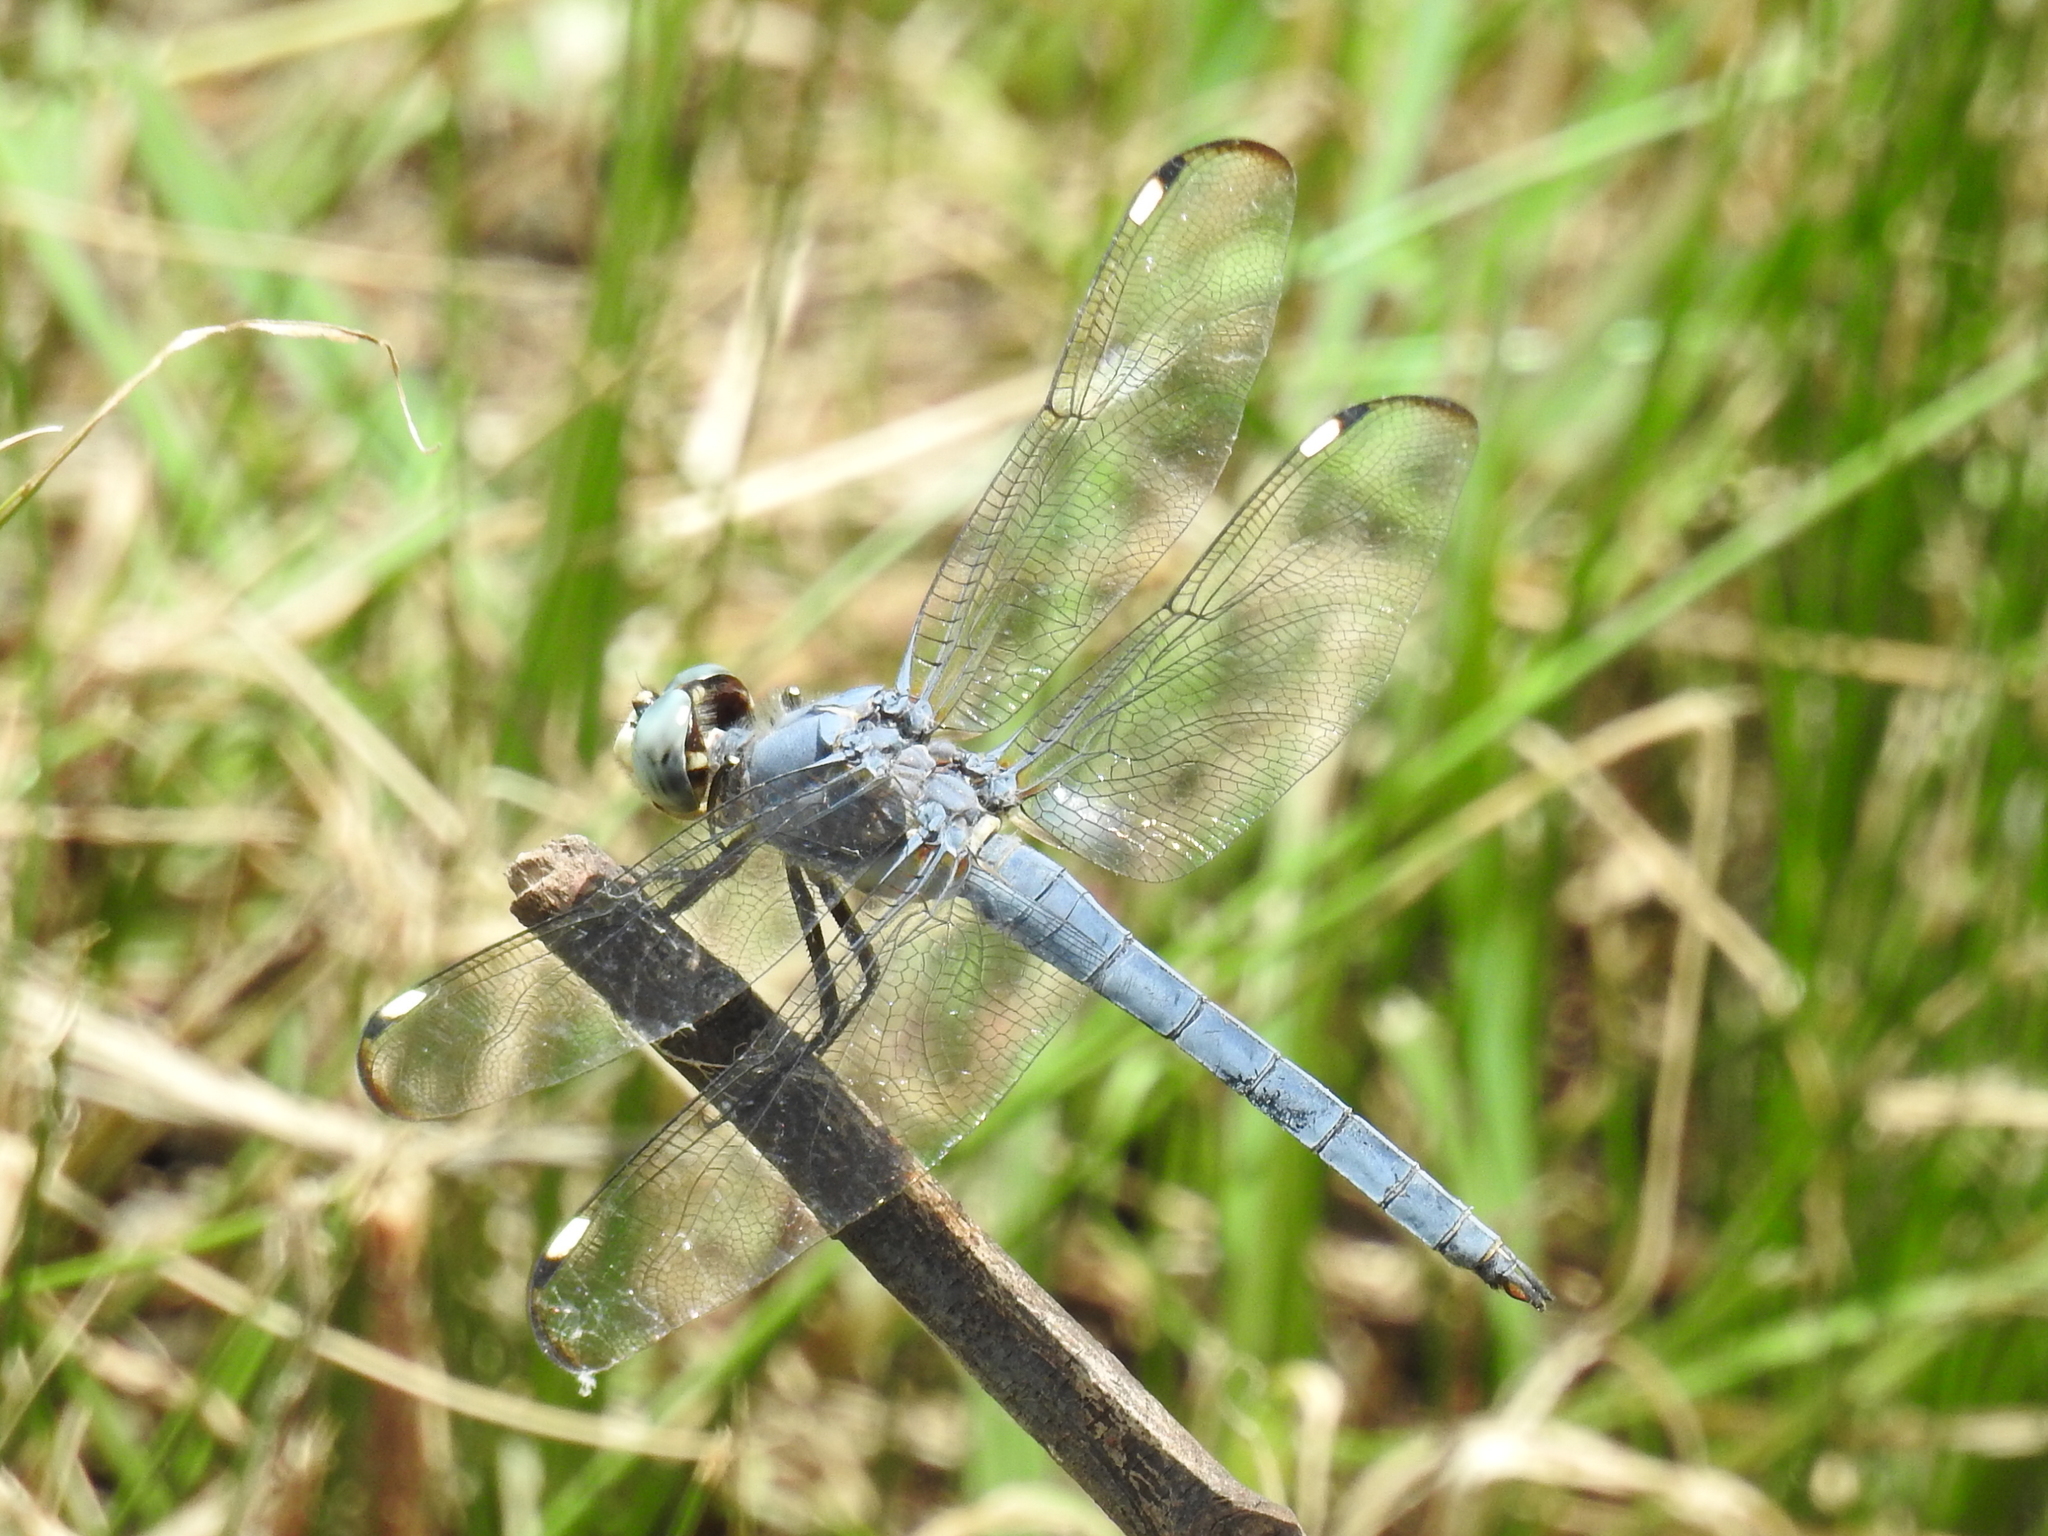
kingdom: Animalia
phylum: Arthropoda
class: Insecta
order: Odonata
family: Libellulidae
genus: Libellula
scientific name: Libellula comanche
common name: Comanche skimmer
